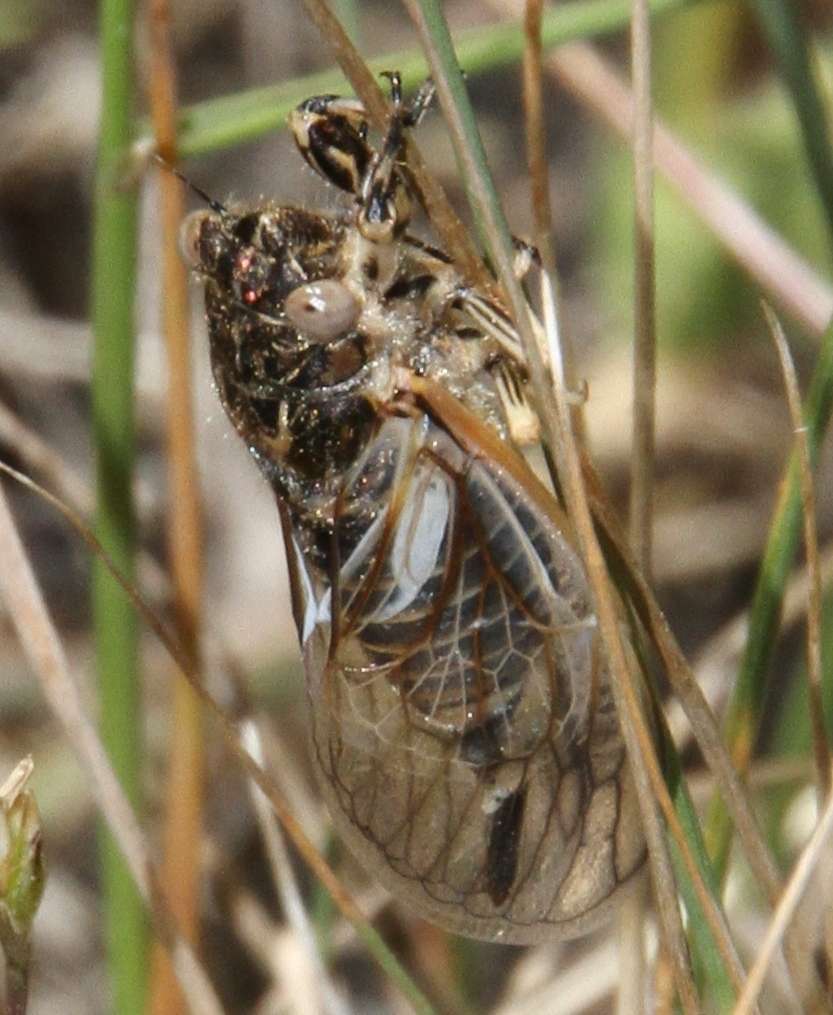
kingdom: Animalia
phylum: Arthropoda
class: Insecta
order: Hemiptera
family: Cicadidae
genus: Myopsalta
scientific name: Myopsalta waterhousei
